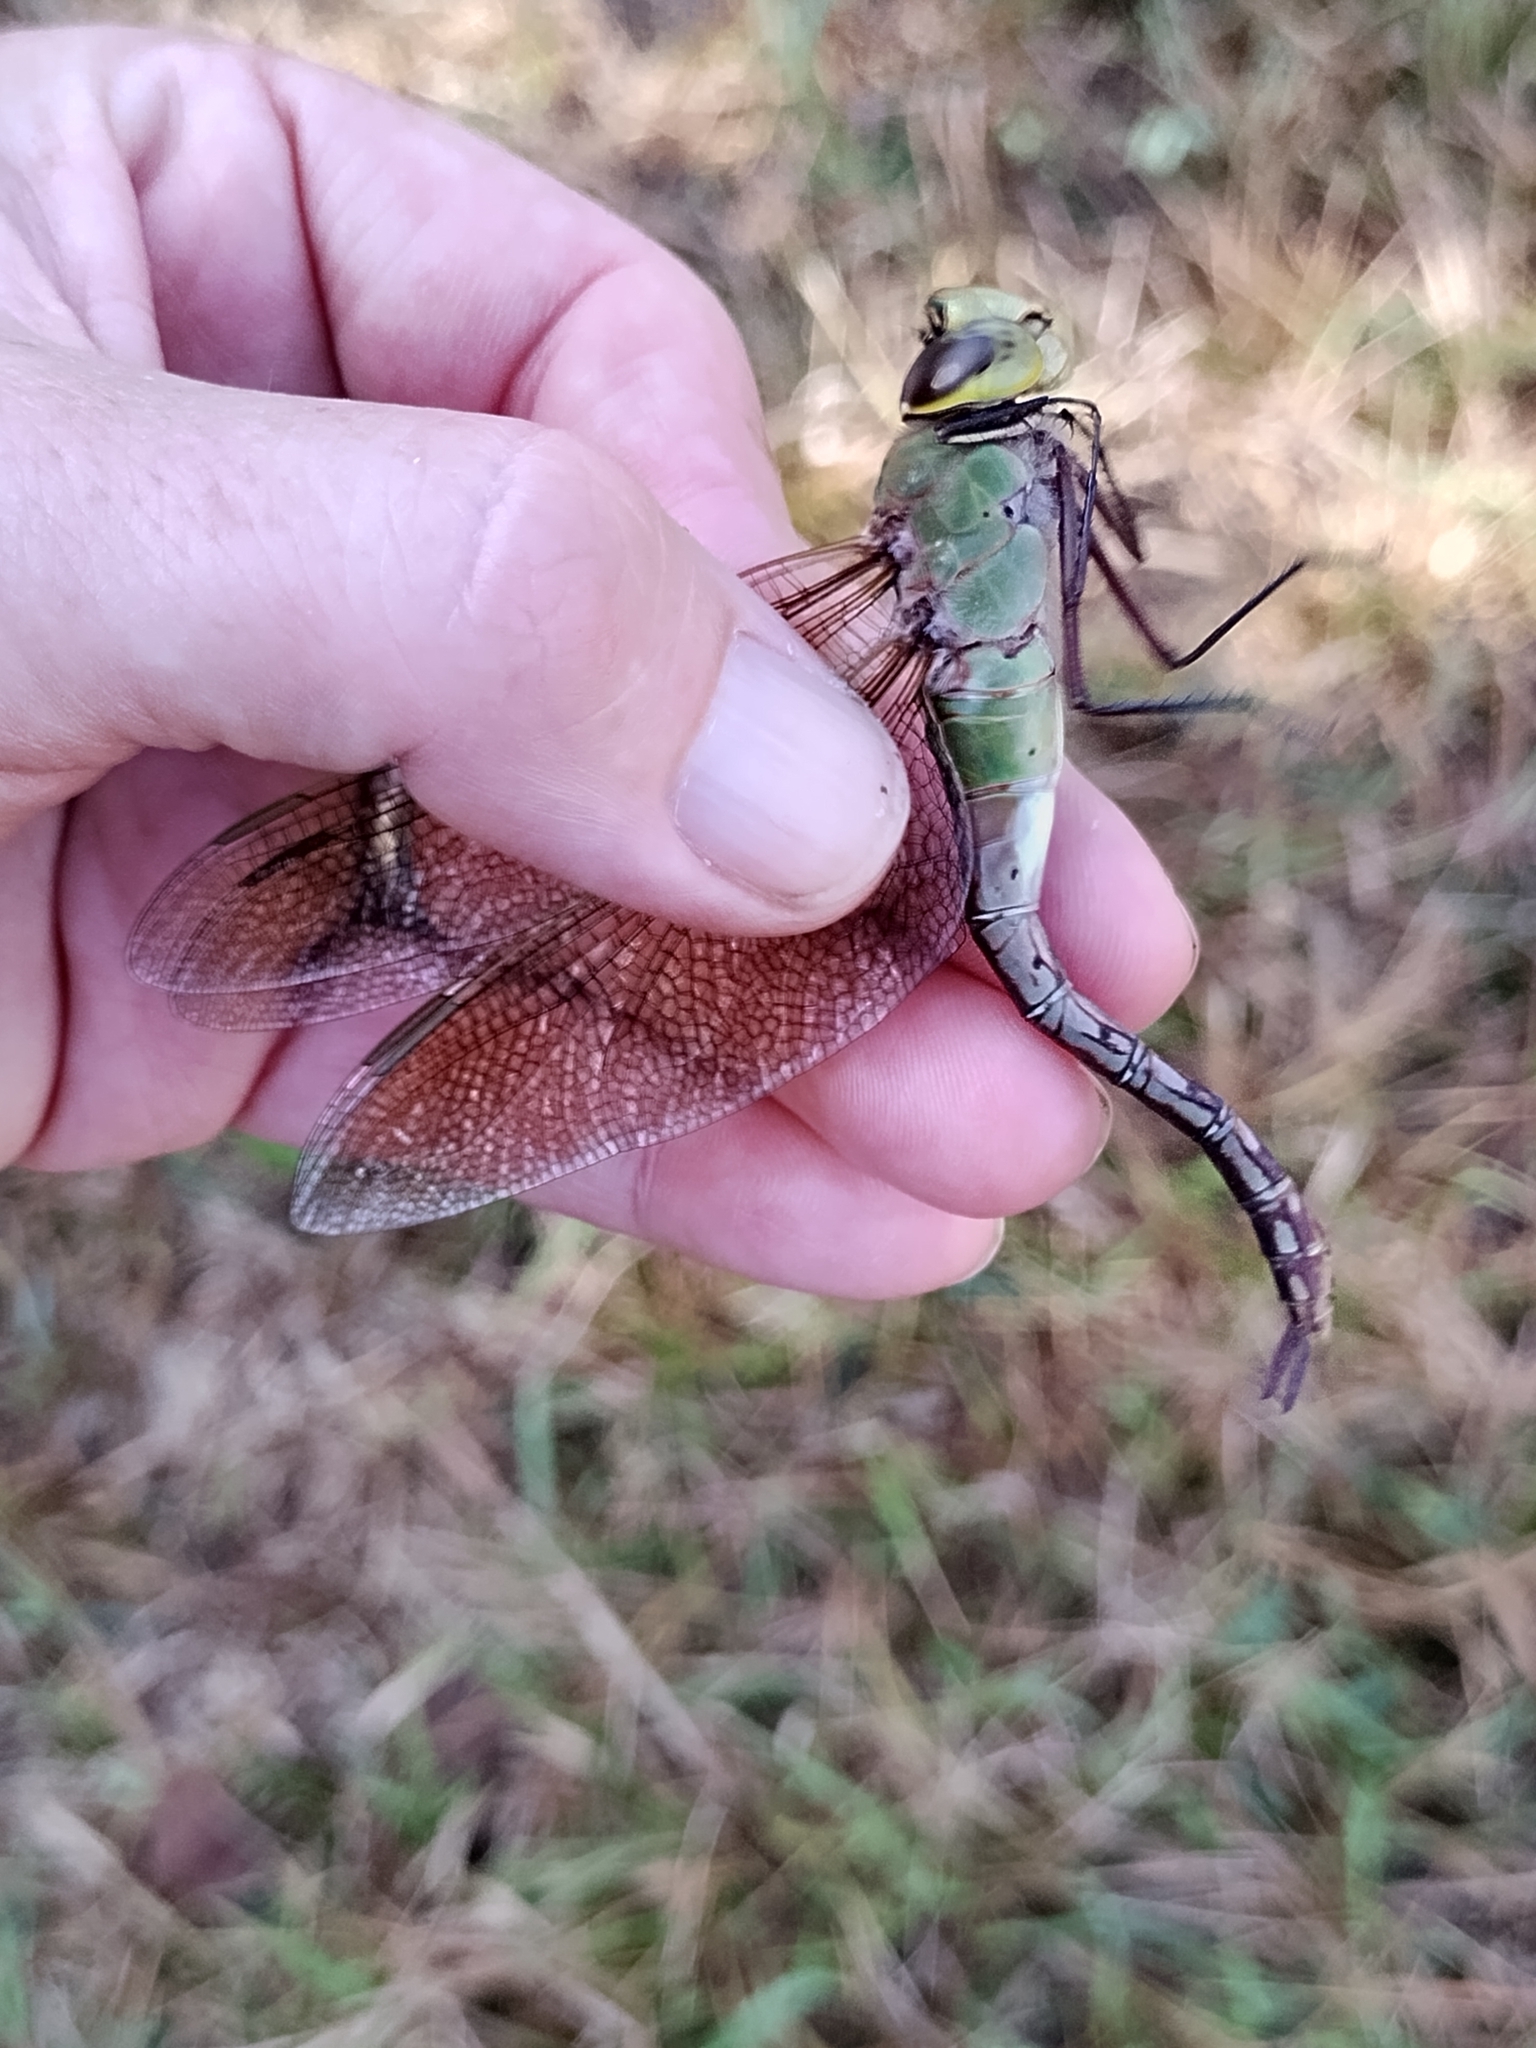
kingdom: Animalia
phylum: Arthropoda
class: Insecta
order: Odonata
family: Aeshnidae
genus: Anax
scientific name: Anax junius
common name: Common green darner
